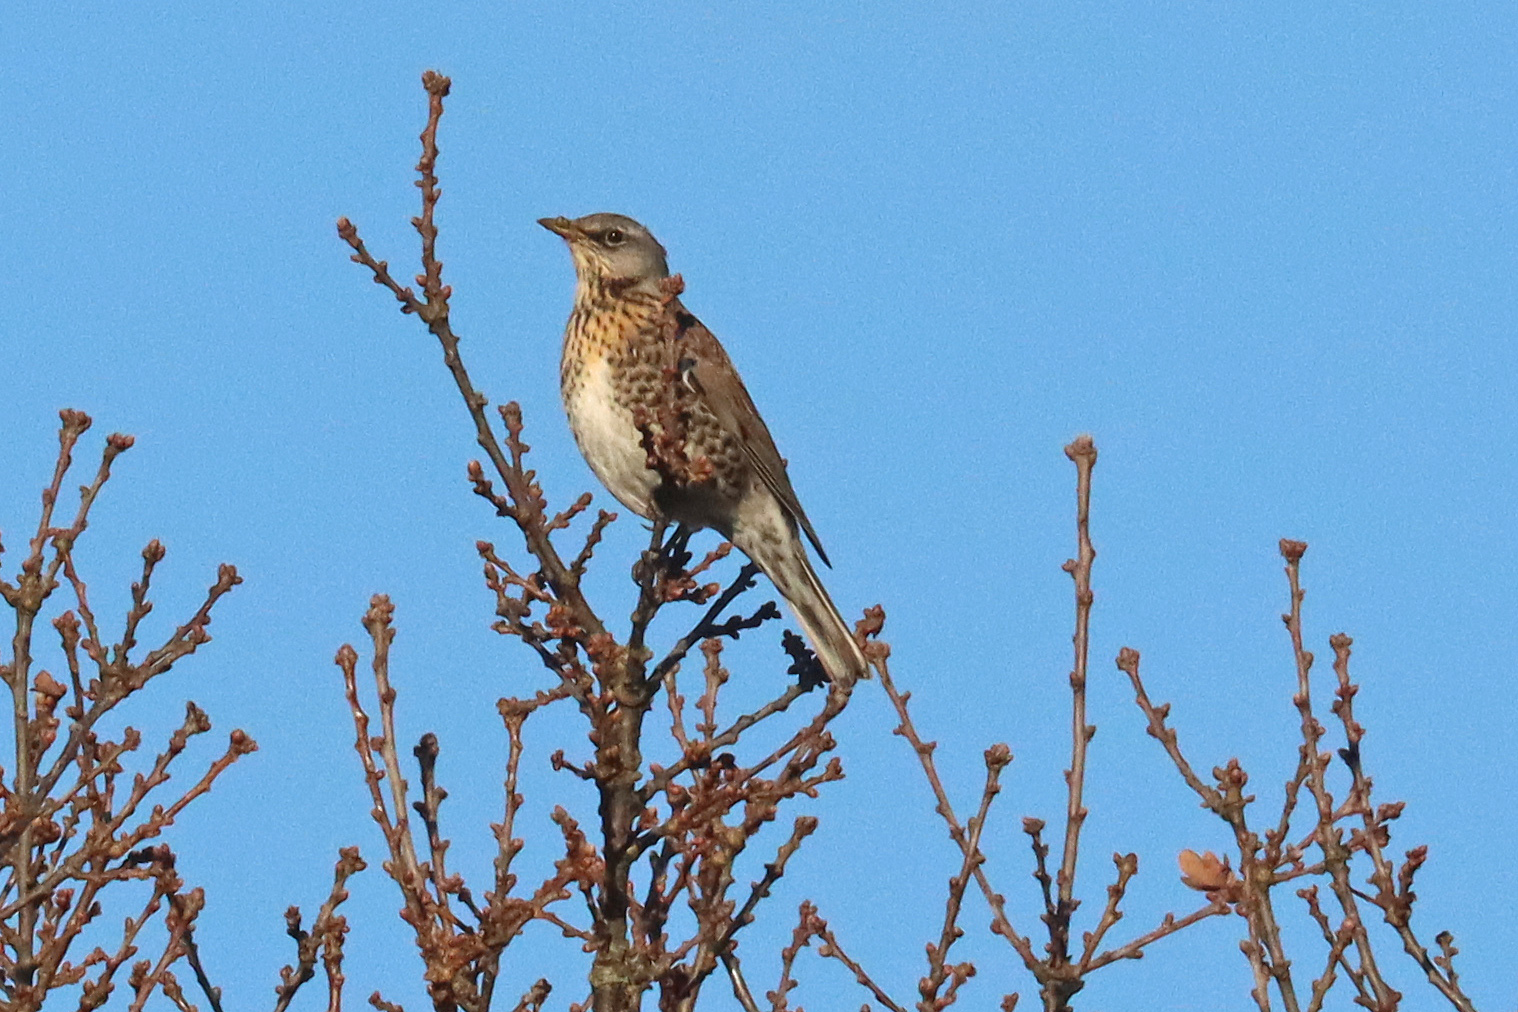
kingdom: Animalia
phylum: Chordata
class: Aves
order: Passeriformes
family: Turdidae
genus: Turdus
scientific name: Turdus pilaris
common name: Fieldfare
